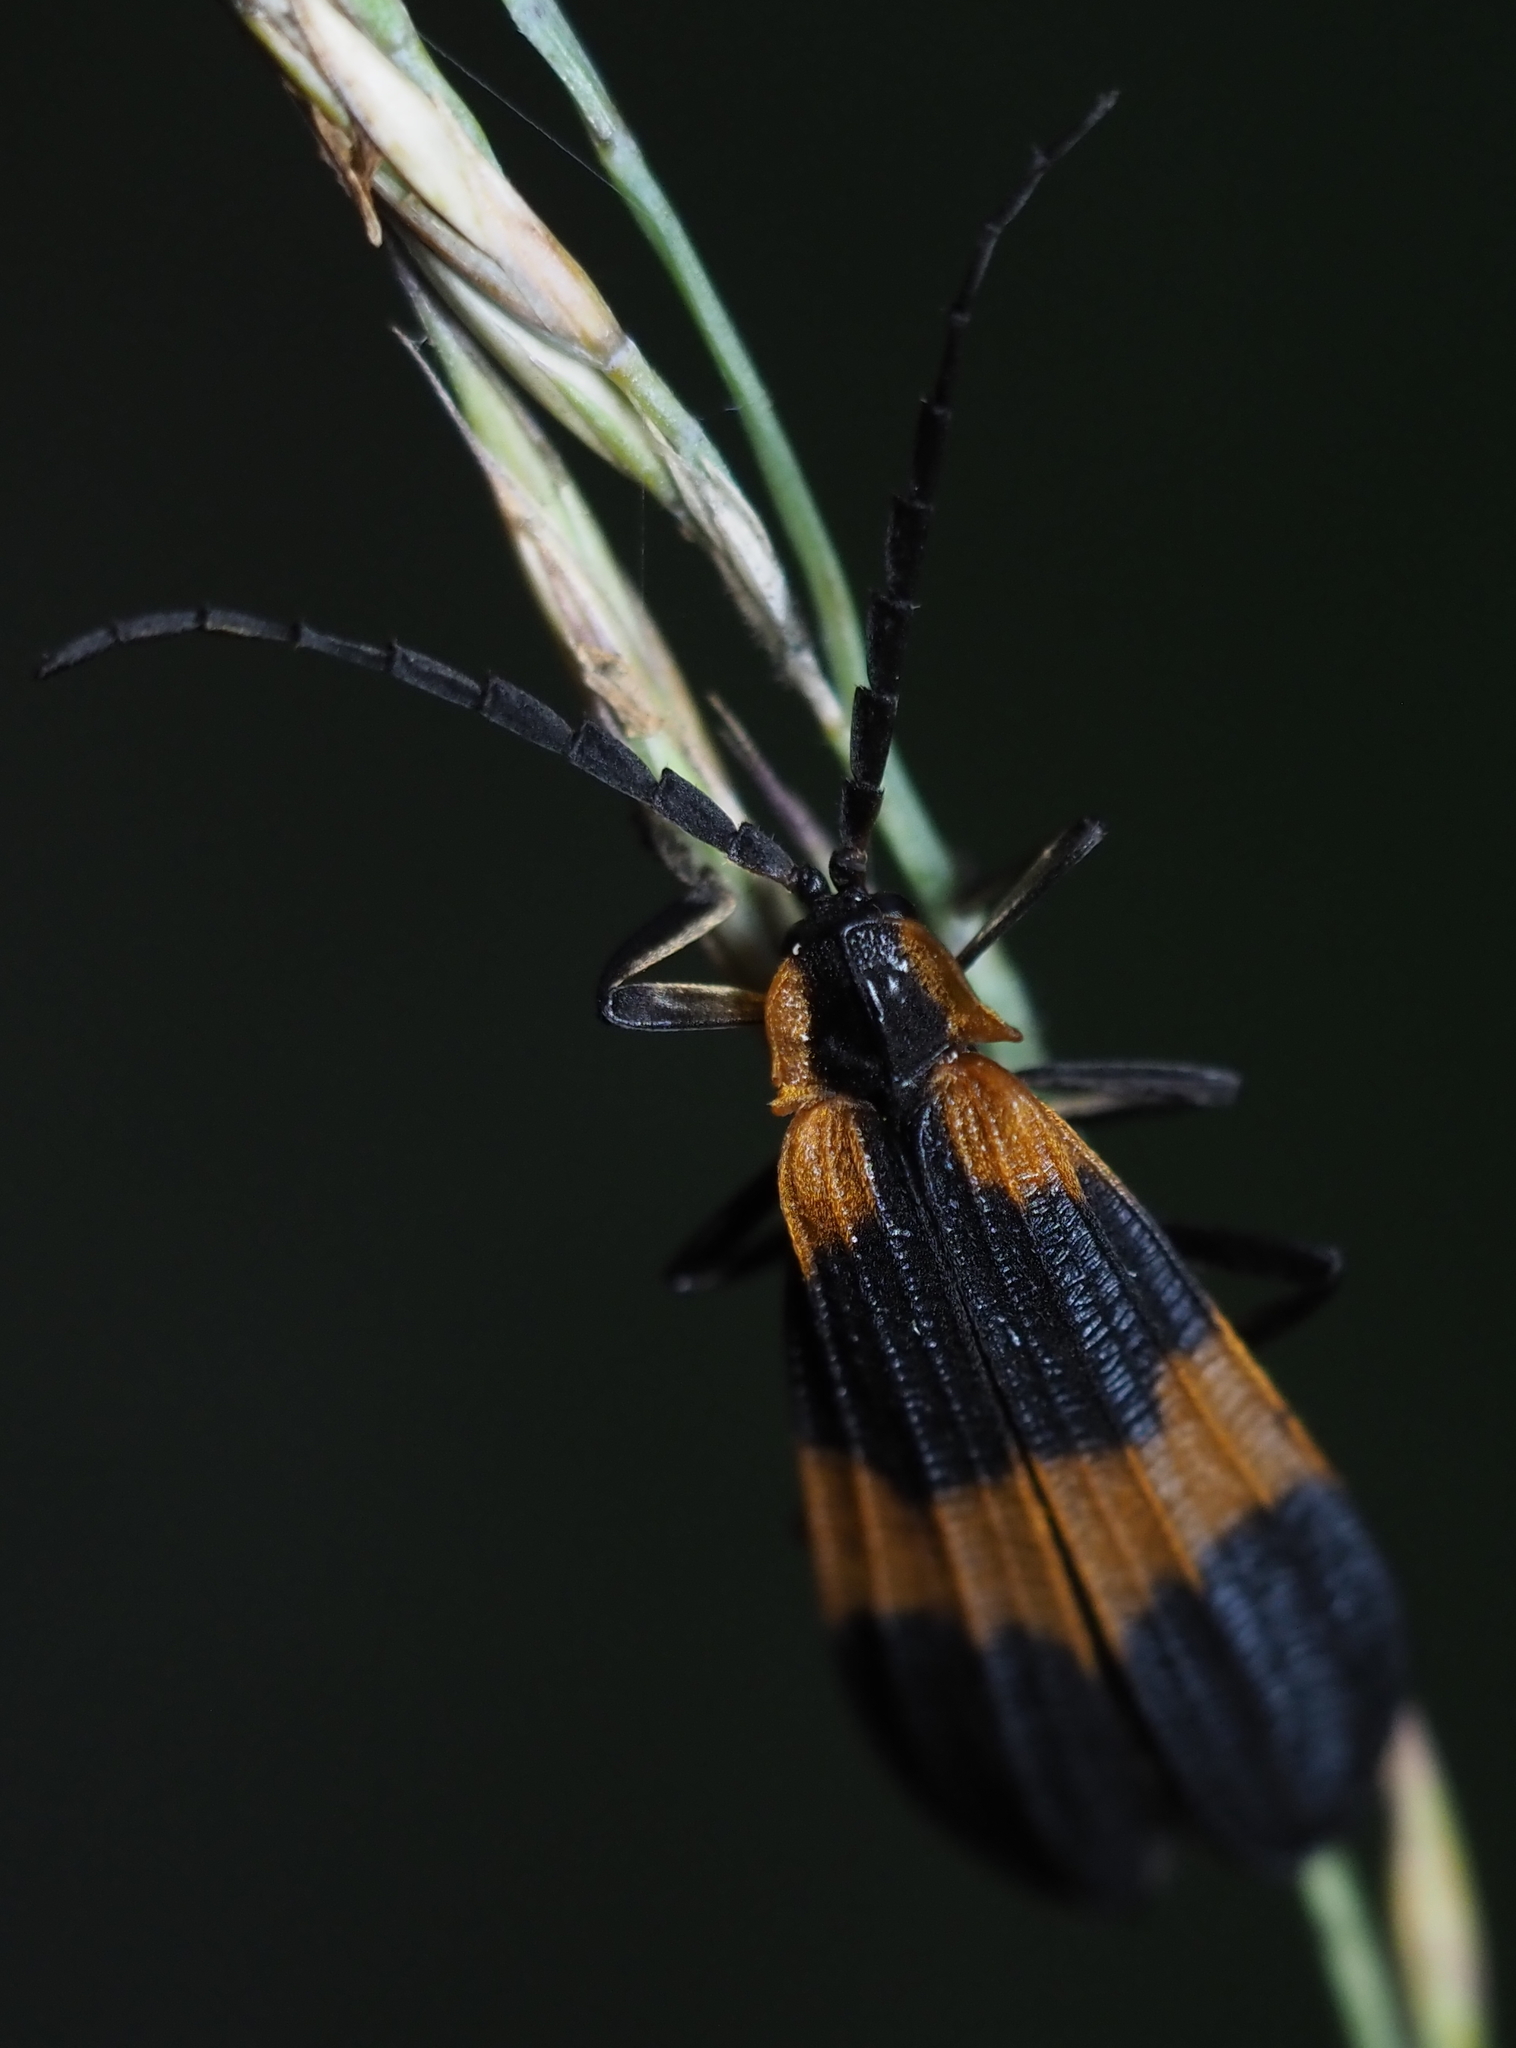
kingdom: Animalia
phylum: Arthropoda
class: Insecta
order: Coleoptera
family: Lycidae
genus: Calopteron
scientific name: Calopteron reticulatum
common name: Banded net-winged beetle
